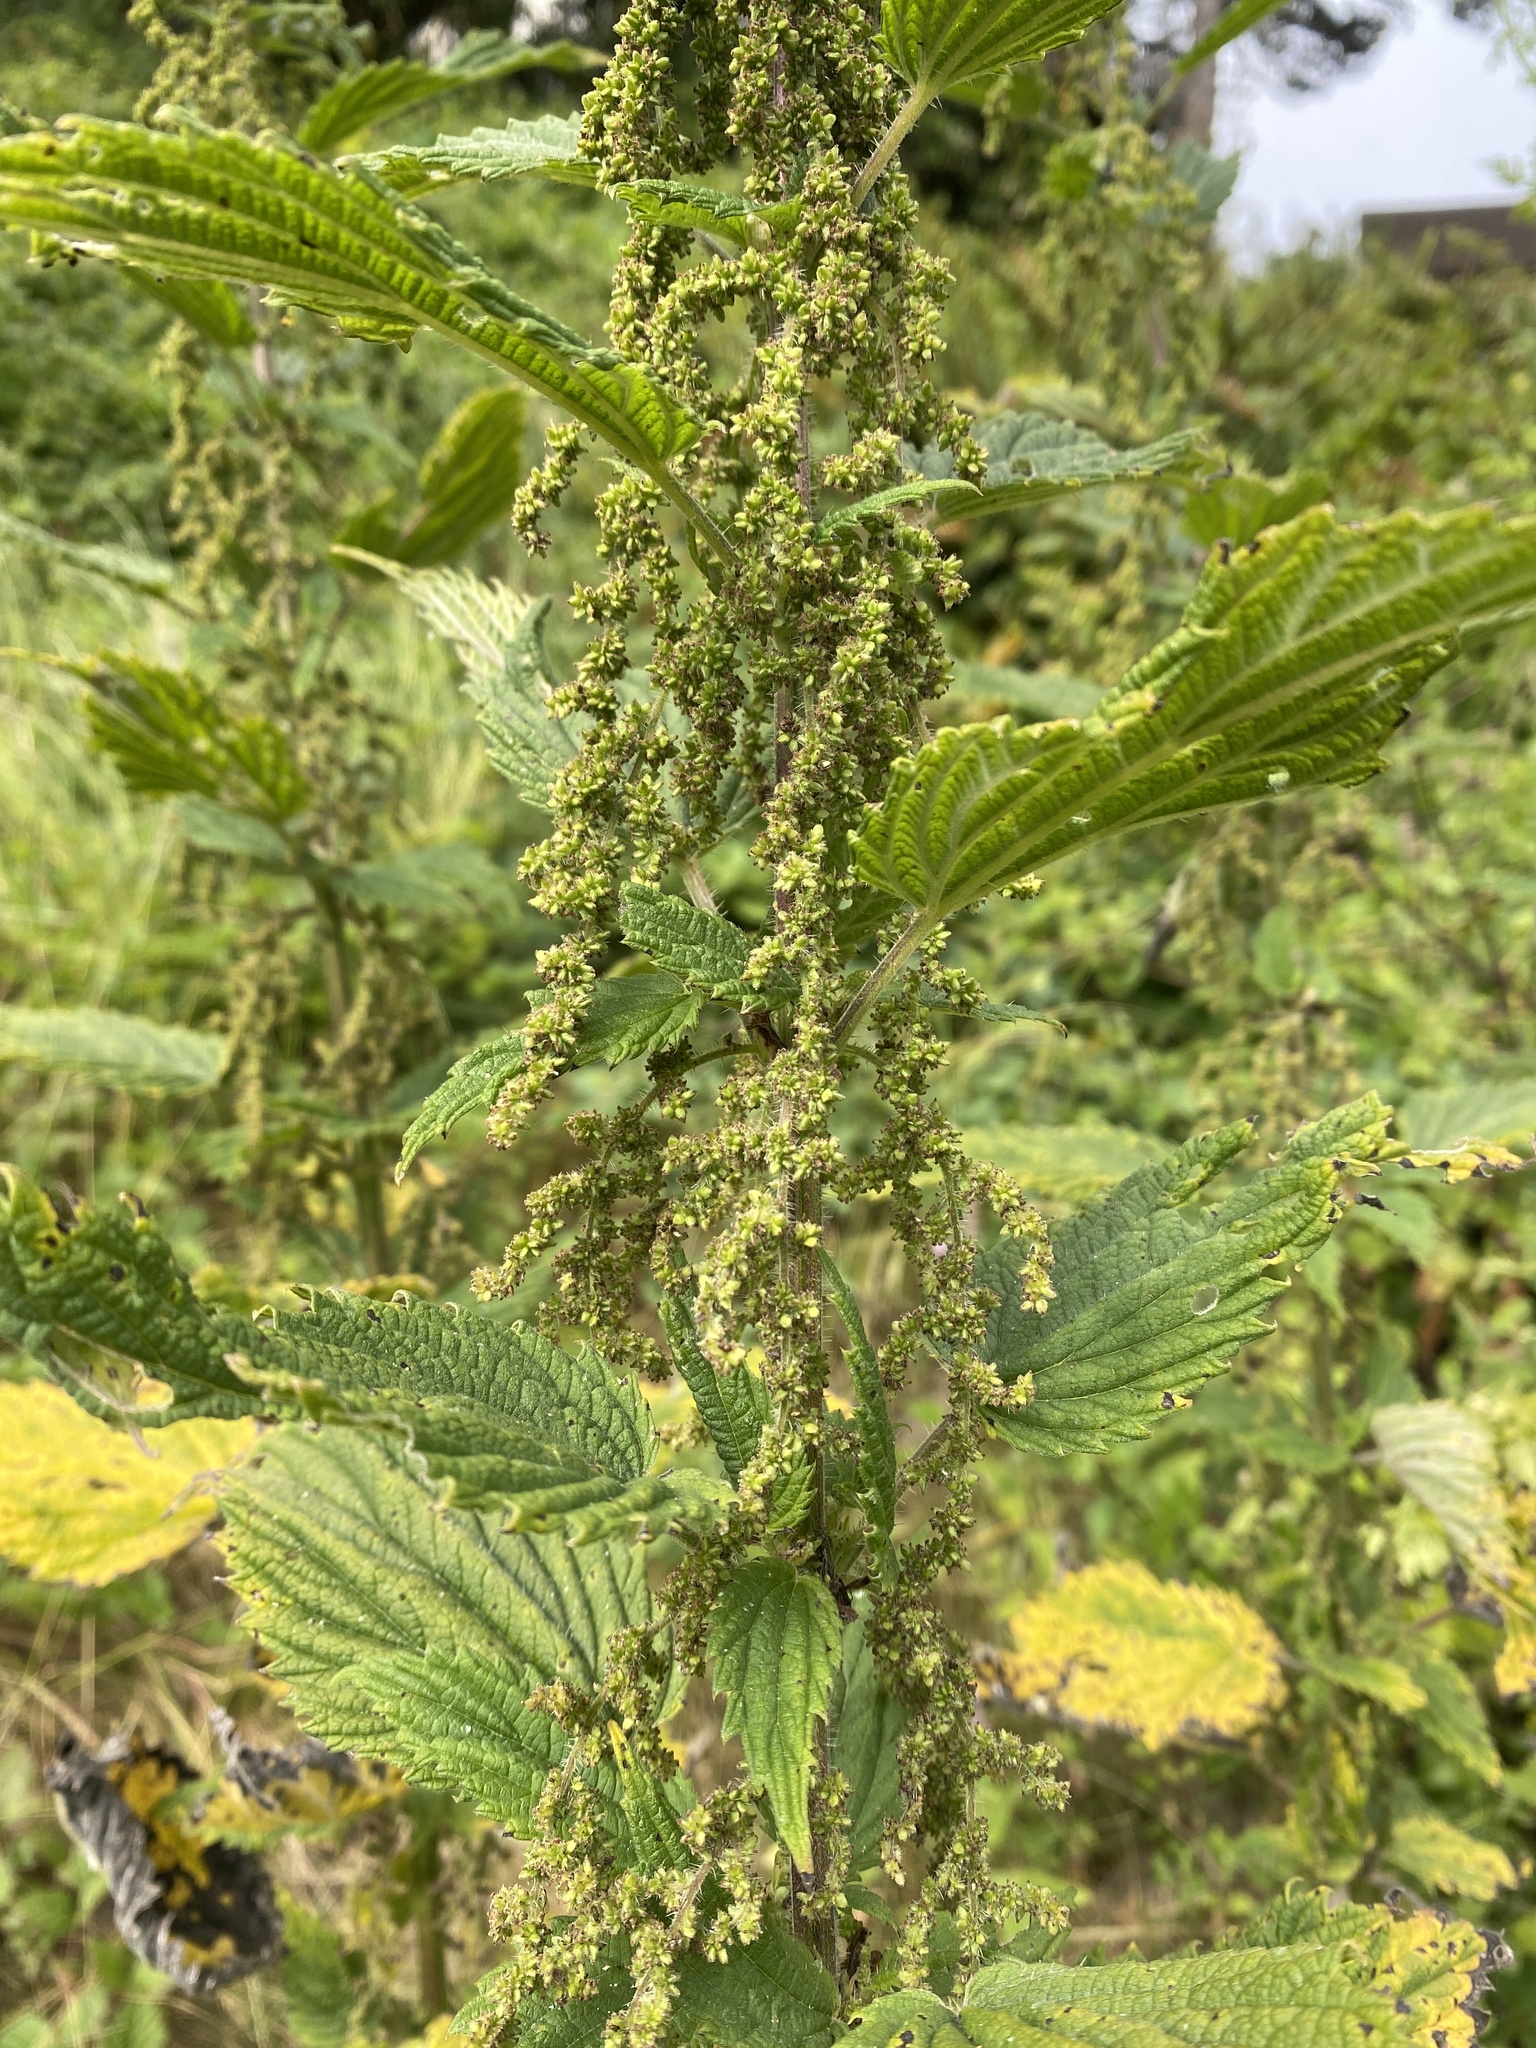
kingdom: Plantae
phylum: Tracheophyta
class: Magnoliopsida
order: Rosales
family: Urticaceae
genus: Urtica
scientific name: Urtica dioica
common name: Common nettle
